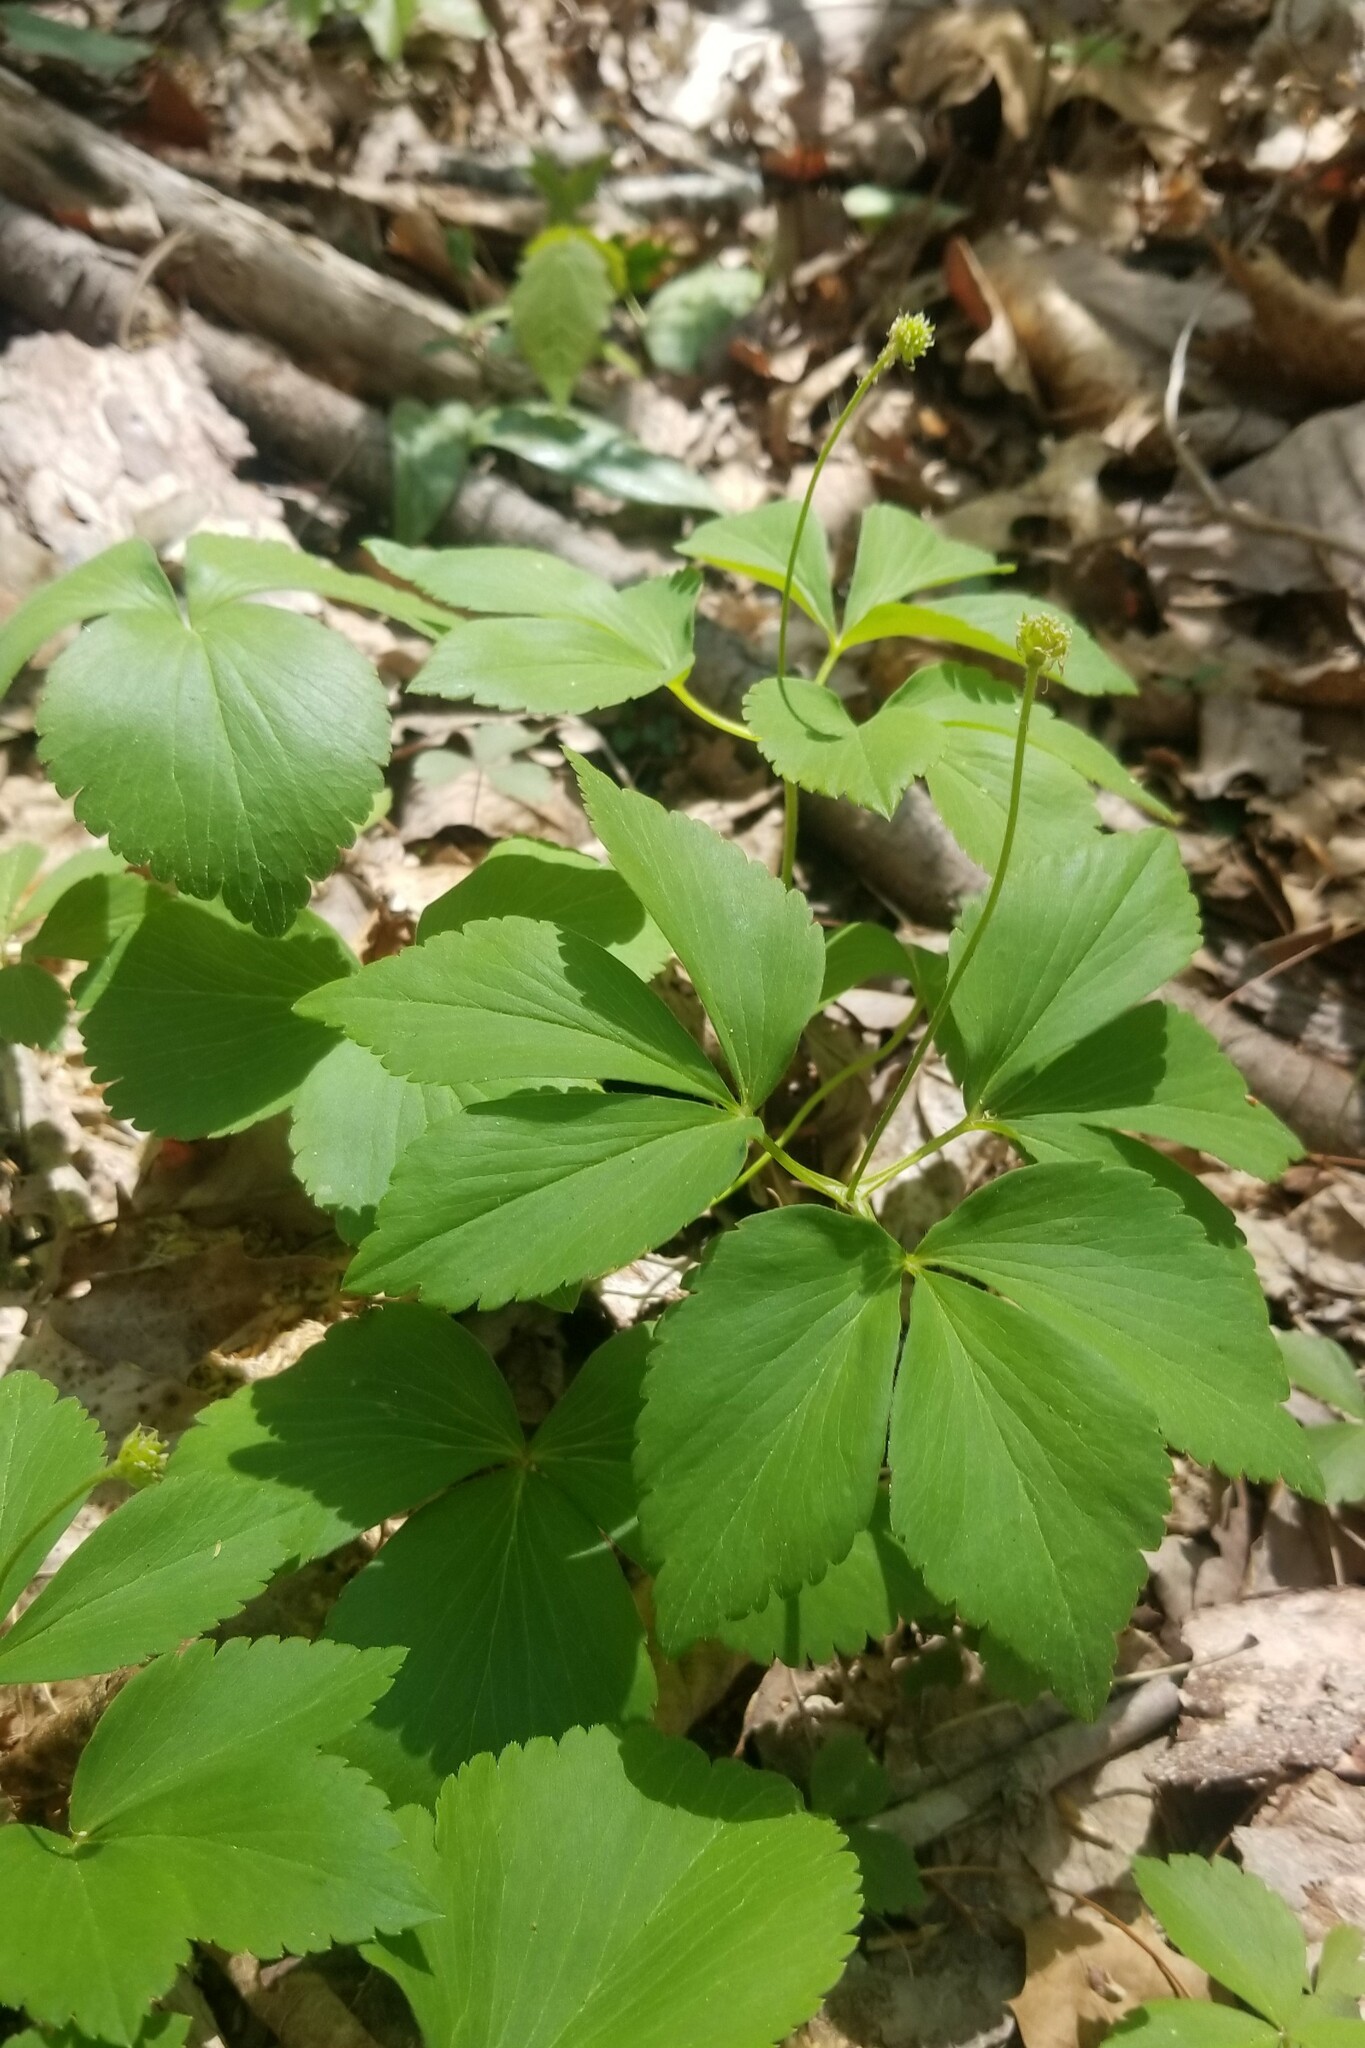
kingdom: Plantae
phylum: Tracheophyta
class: Magnoliopsida
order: Ranunculales
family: Ranunculaceae
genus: Anemone
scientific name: Anemone lancifolia
